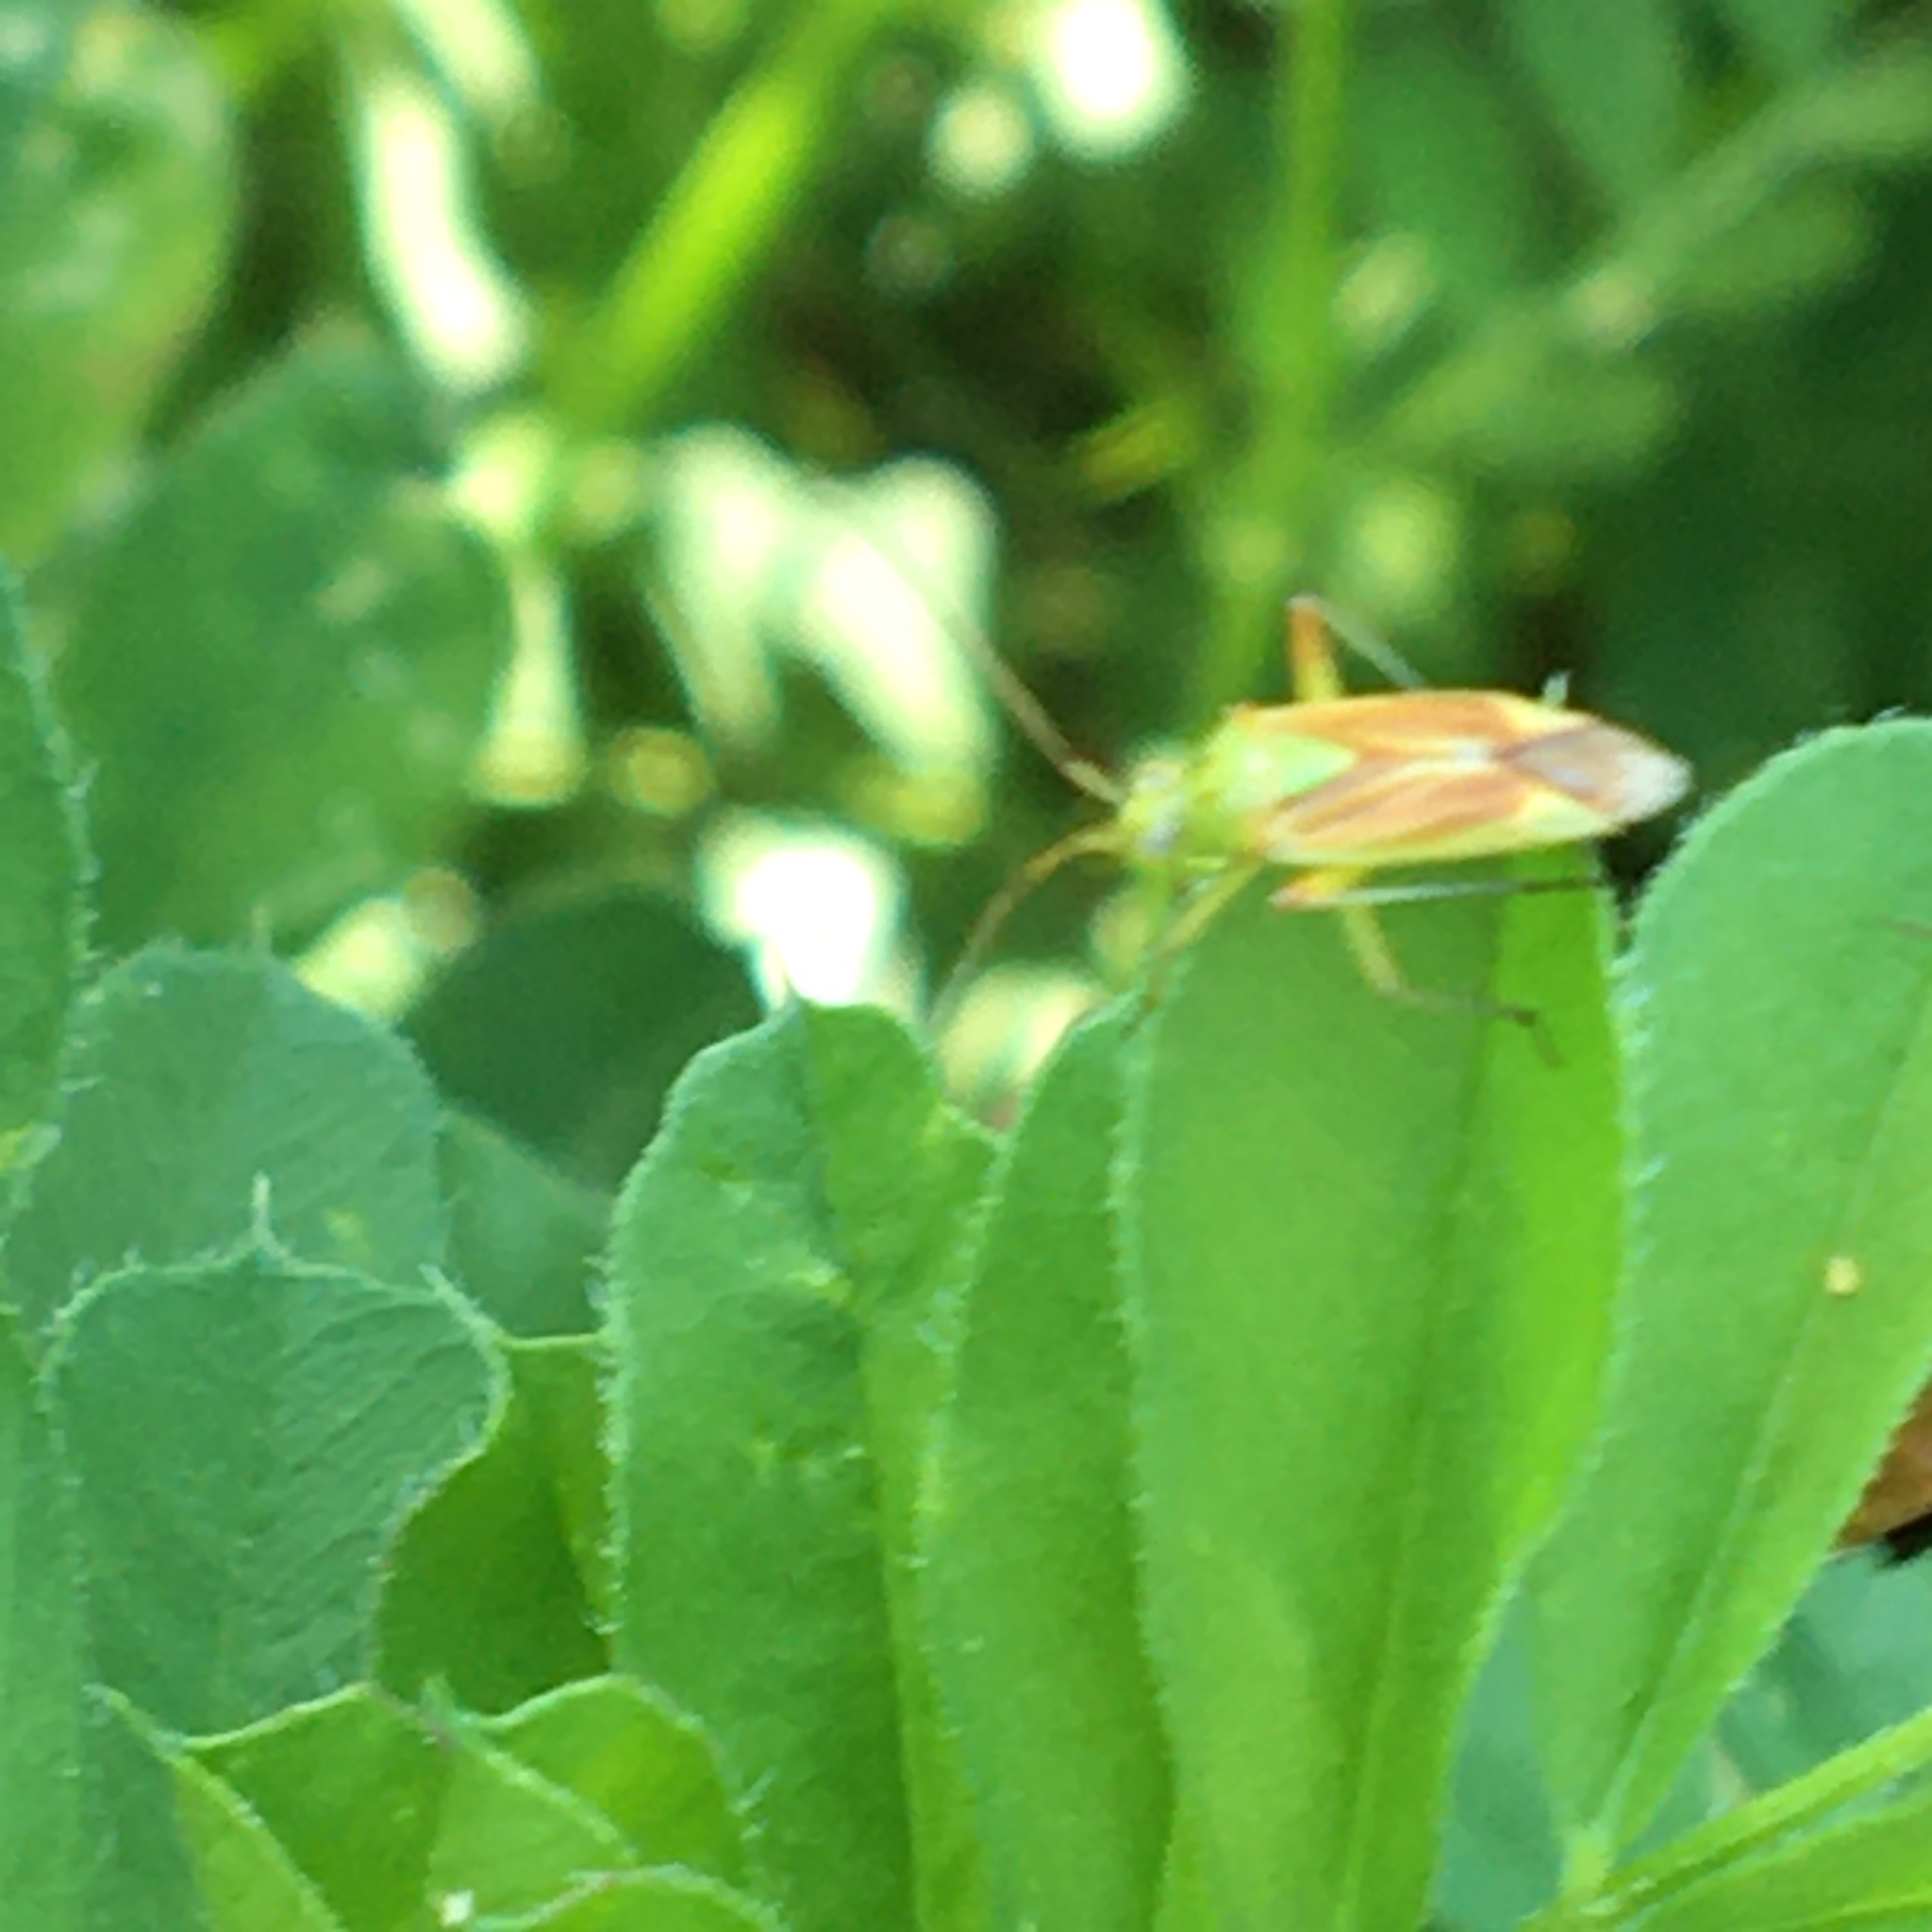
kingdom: Animalia
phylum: Arthropoda
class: Insecta
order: Hemiptera
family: Miridae
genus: Closterotomus
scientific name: Closterotomus norvegicus
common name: Plant bug
